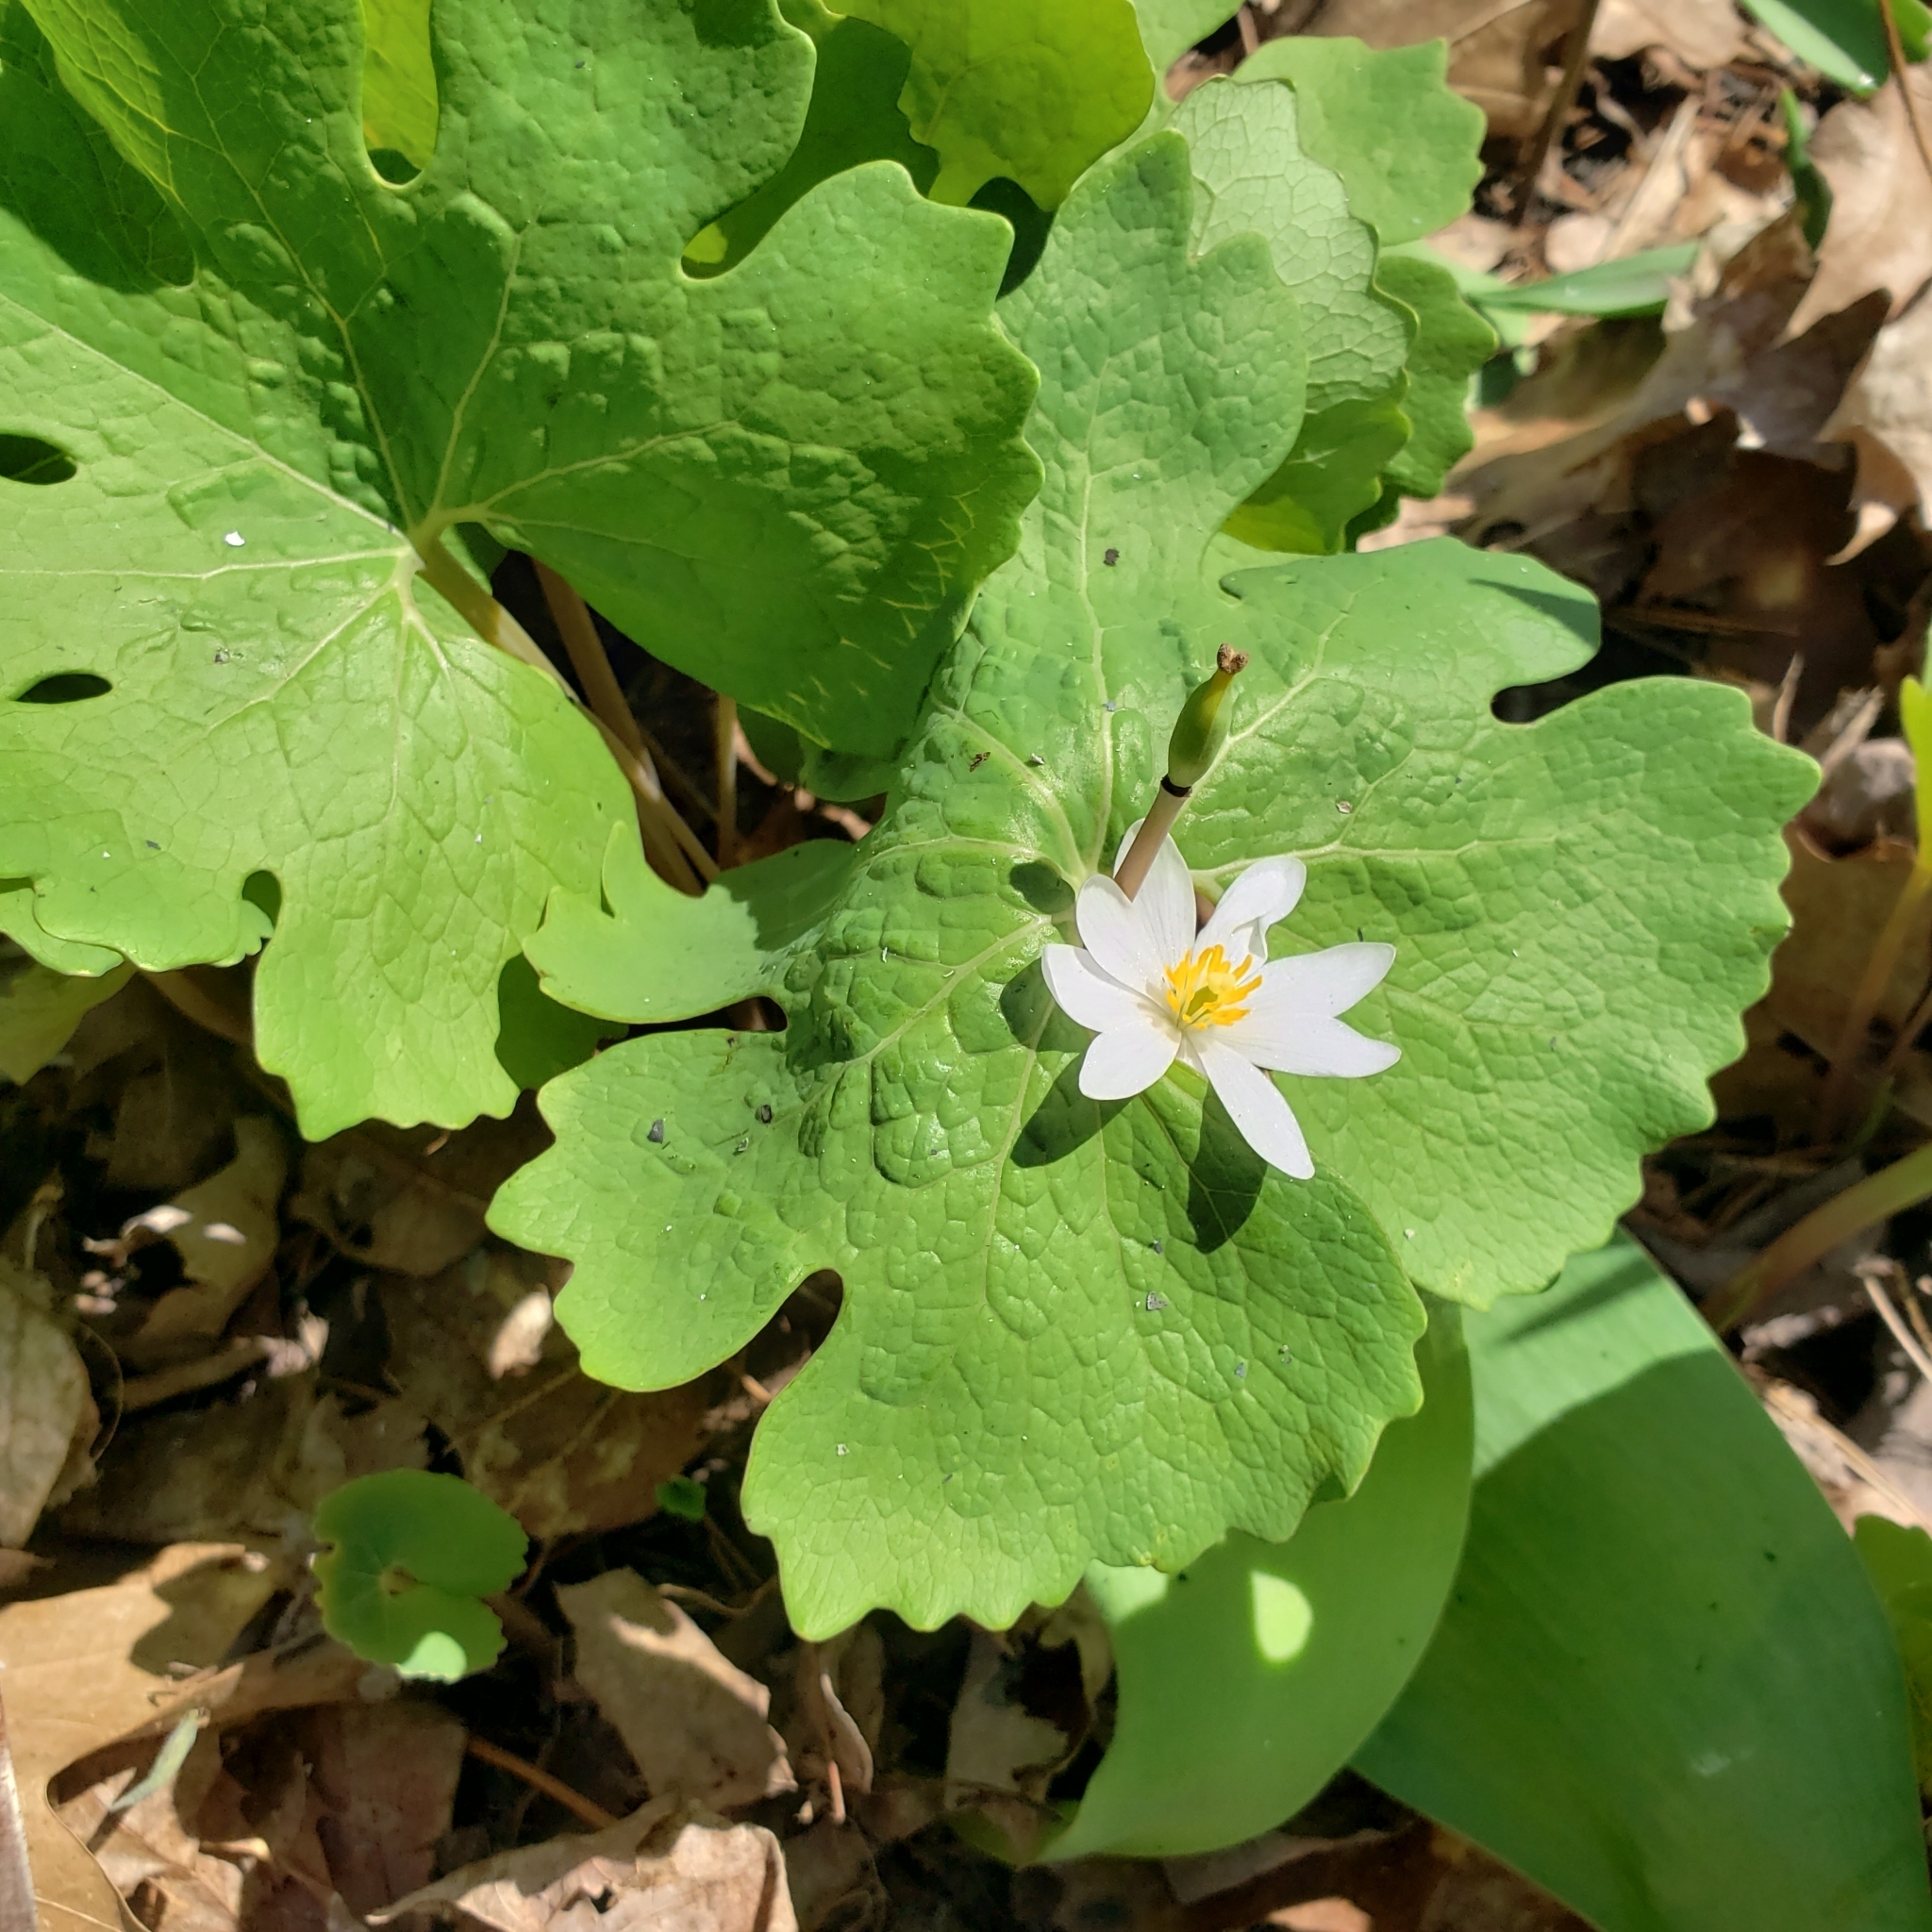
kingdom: Plantae
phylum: Tracheophyta
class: Magnoliopsida
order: Ranunculales
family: Papaveraceae
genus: Sanguinaria
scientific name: Sanguinaria canadensis
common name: Bloodroot
